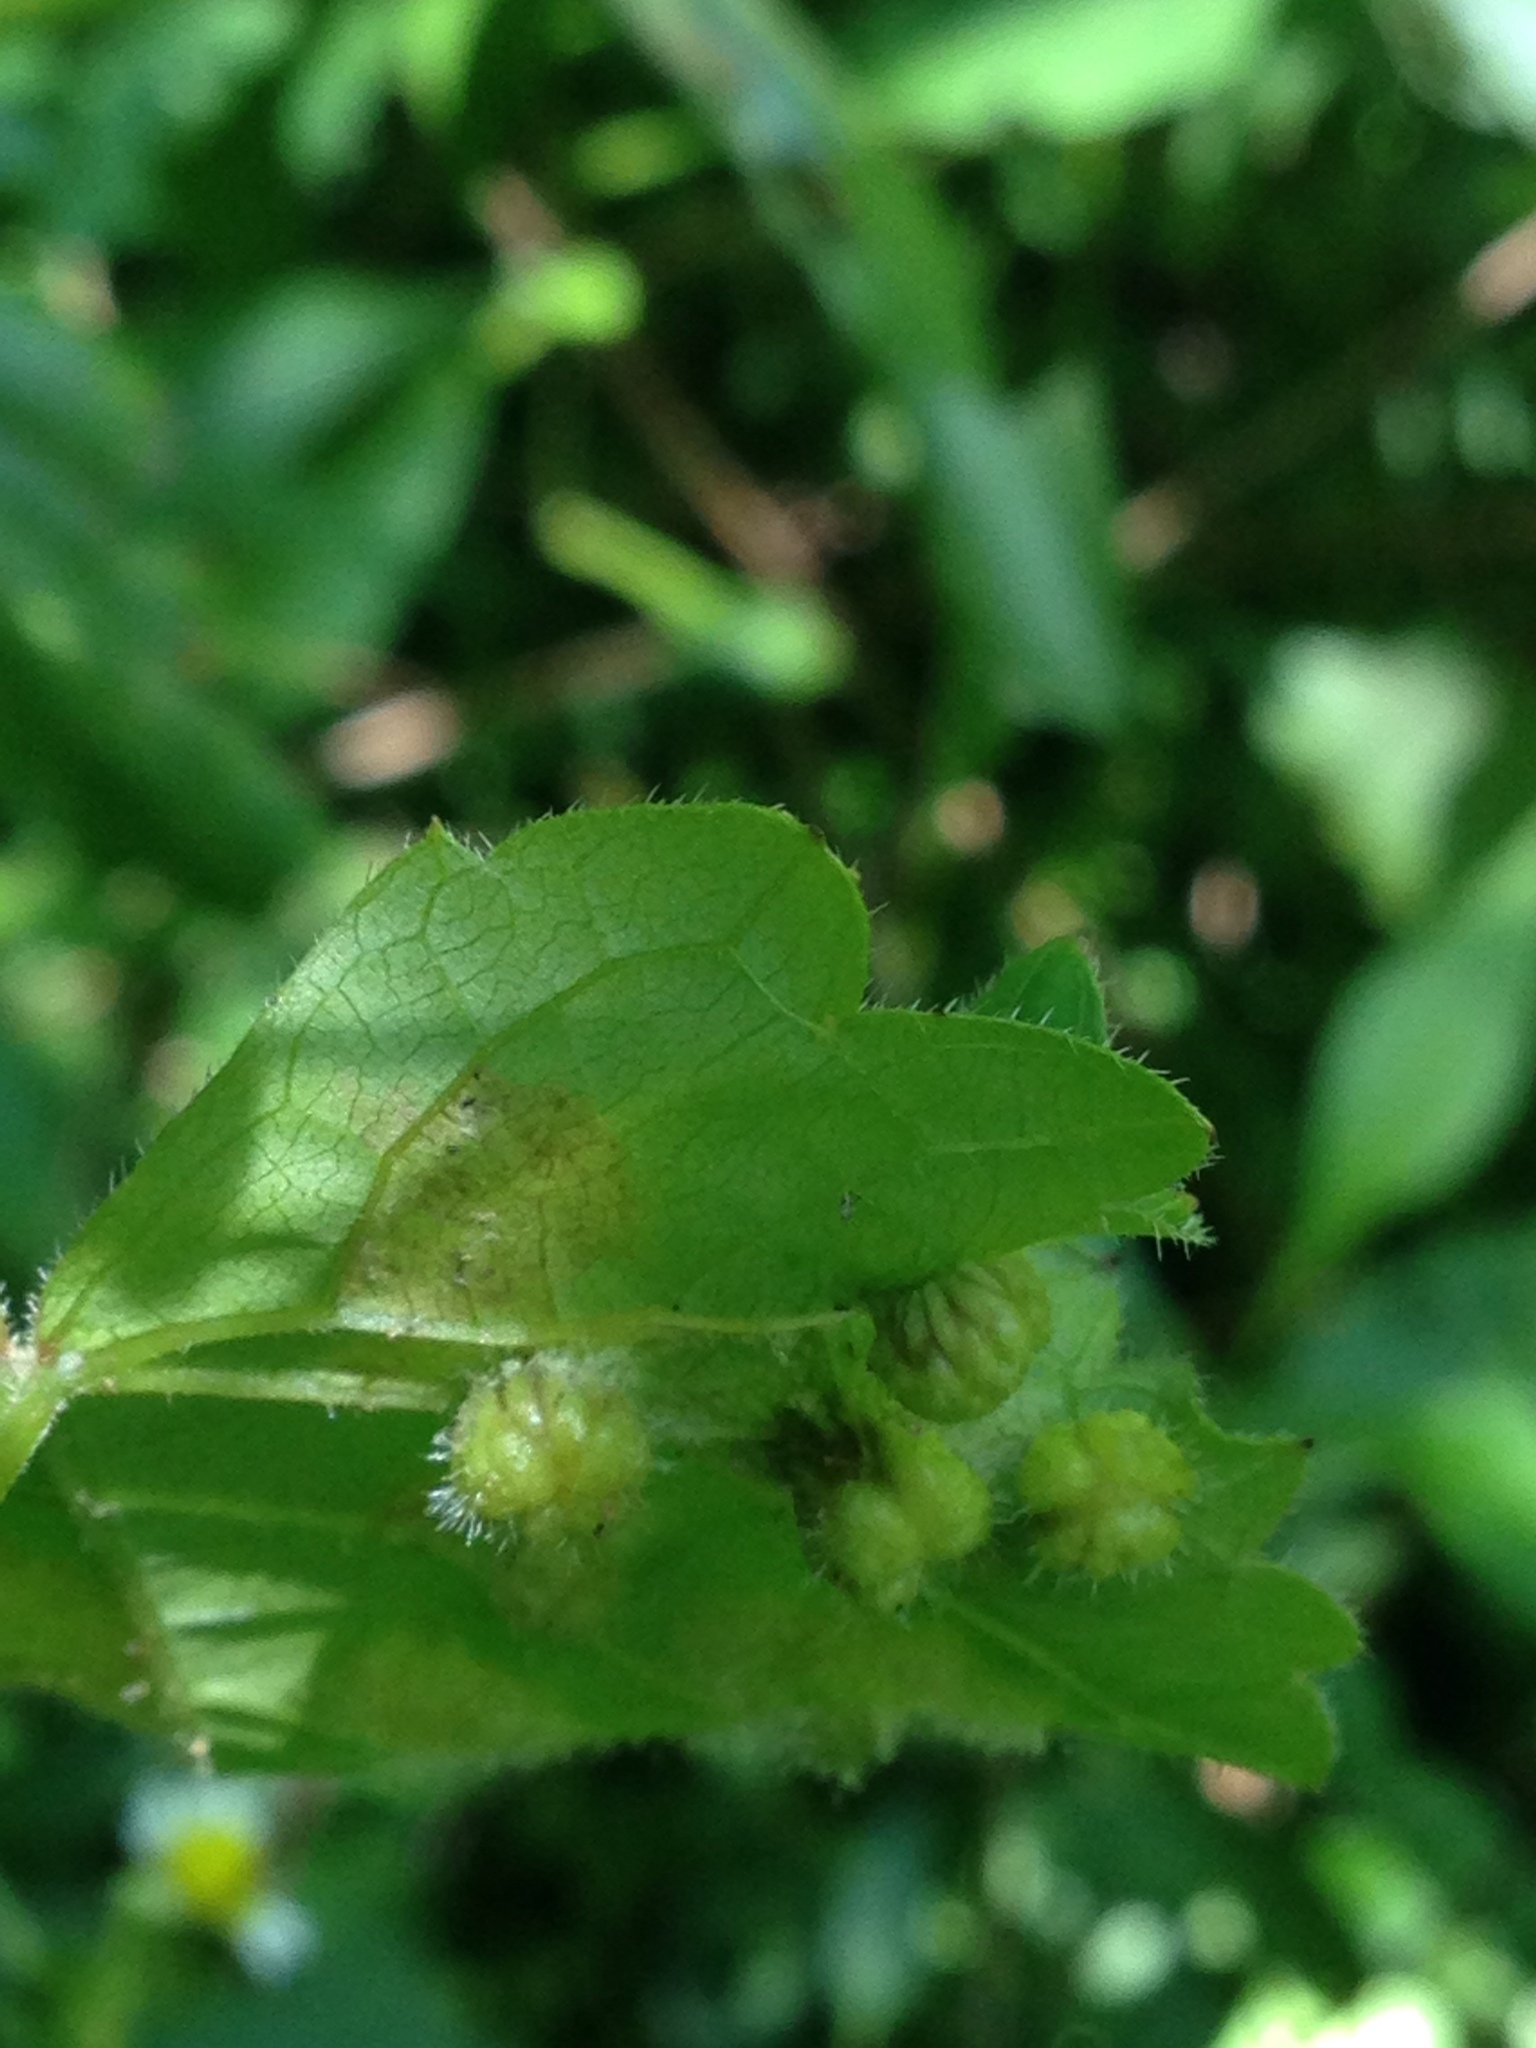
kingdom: Animalia
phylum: Arthropoda
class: Insecta
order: Hemiptera
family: Phylloxeridae
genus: Daktulosphaira
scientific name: Daktulosphaira vitifoliae
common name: Grape phylloxera
